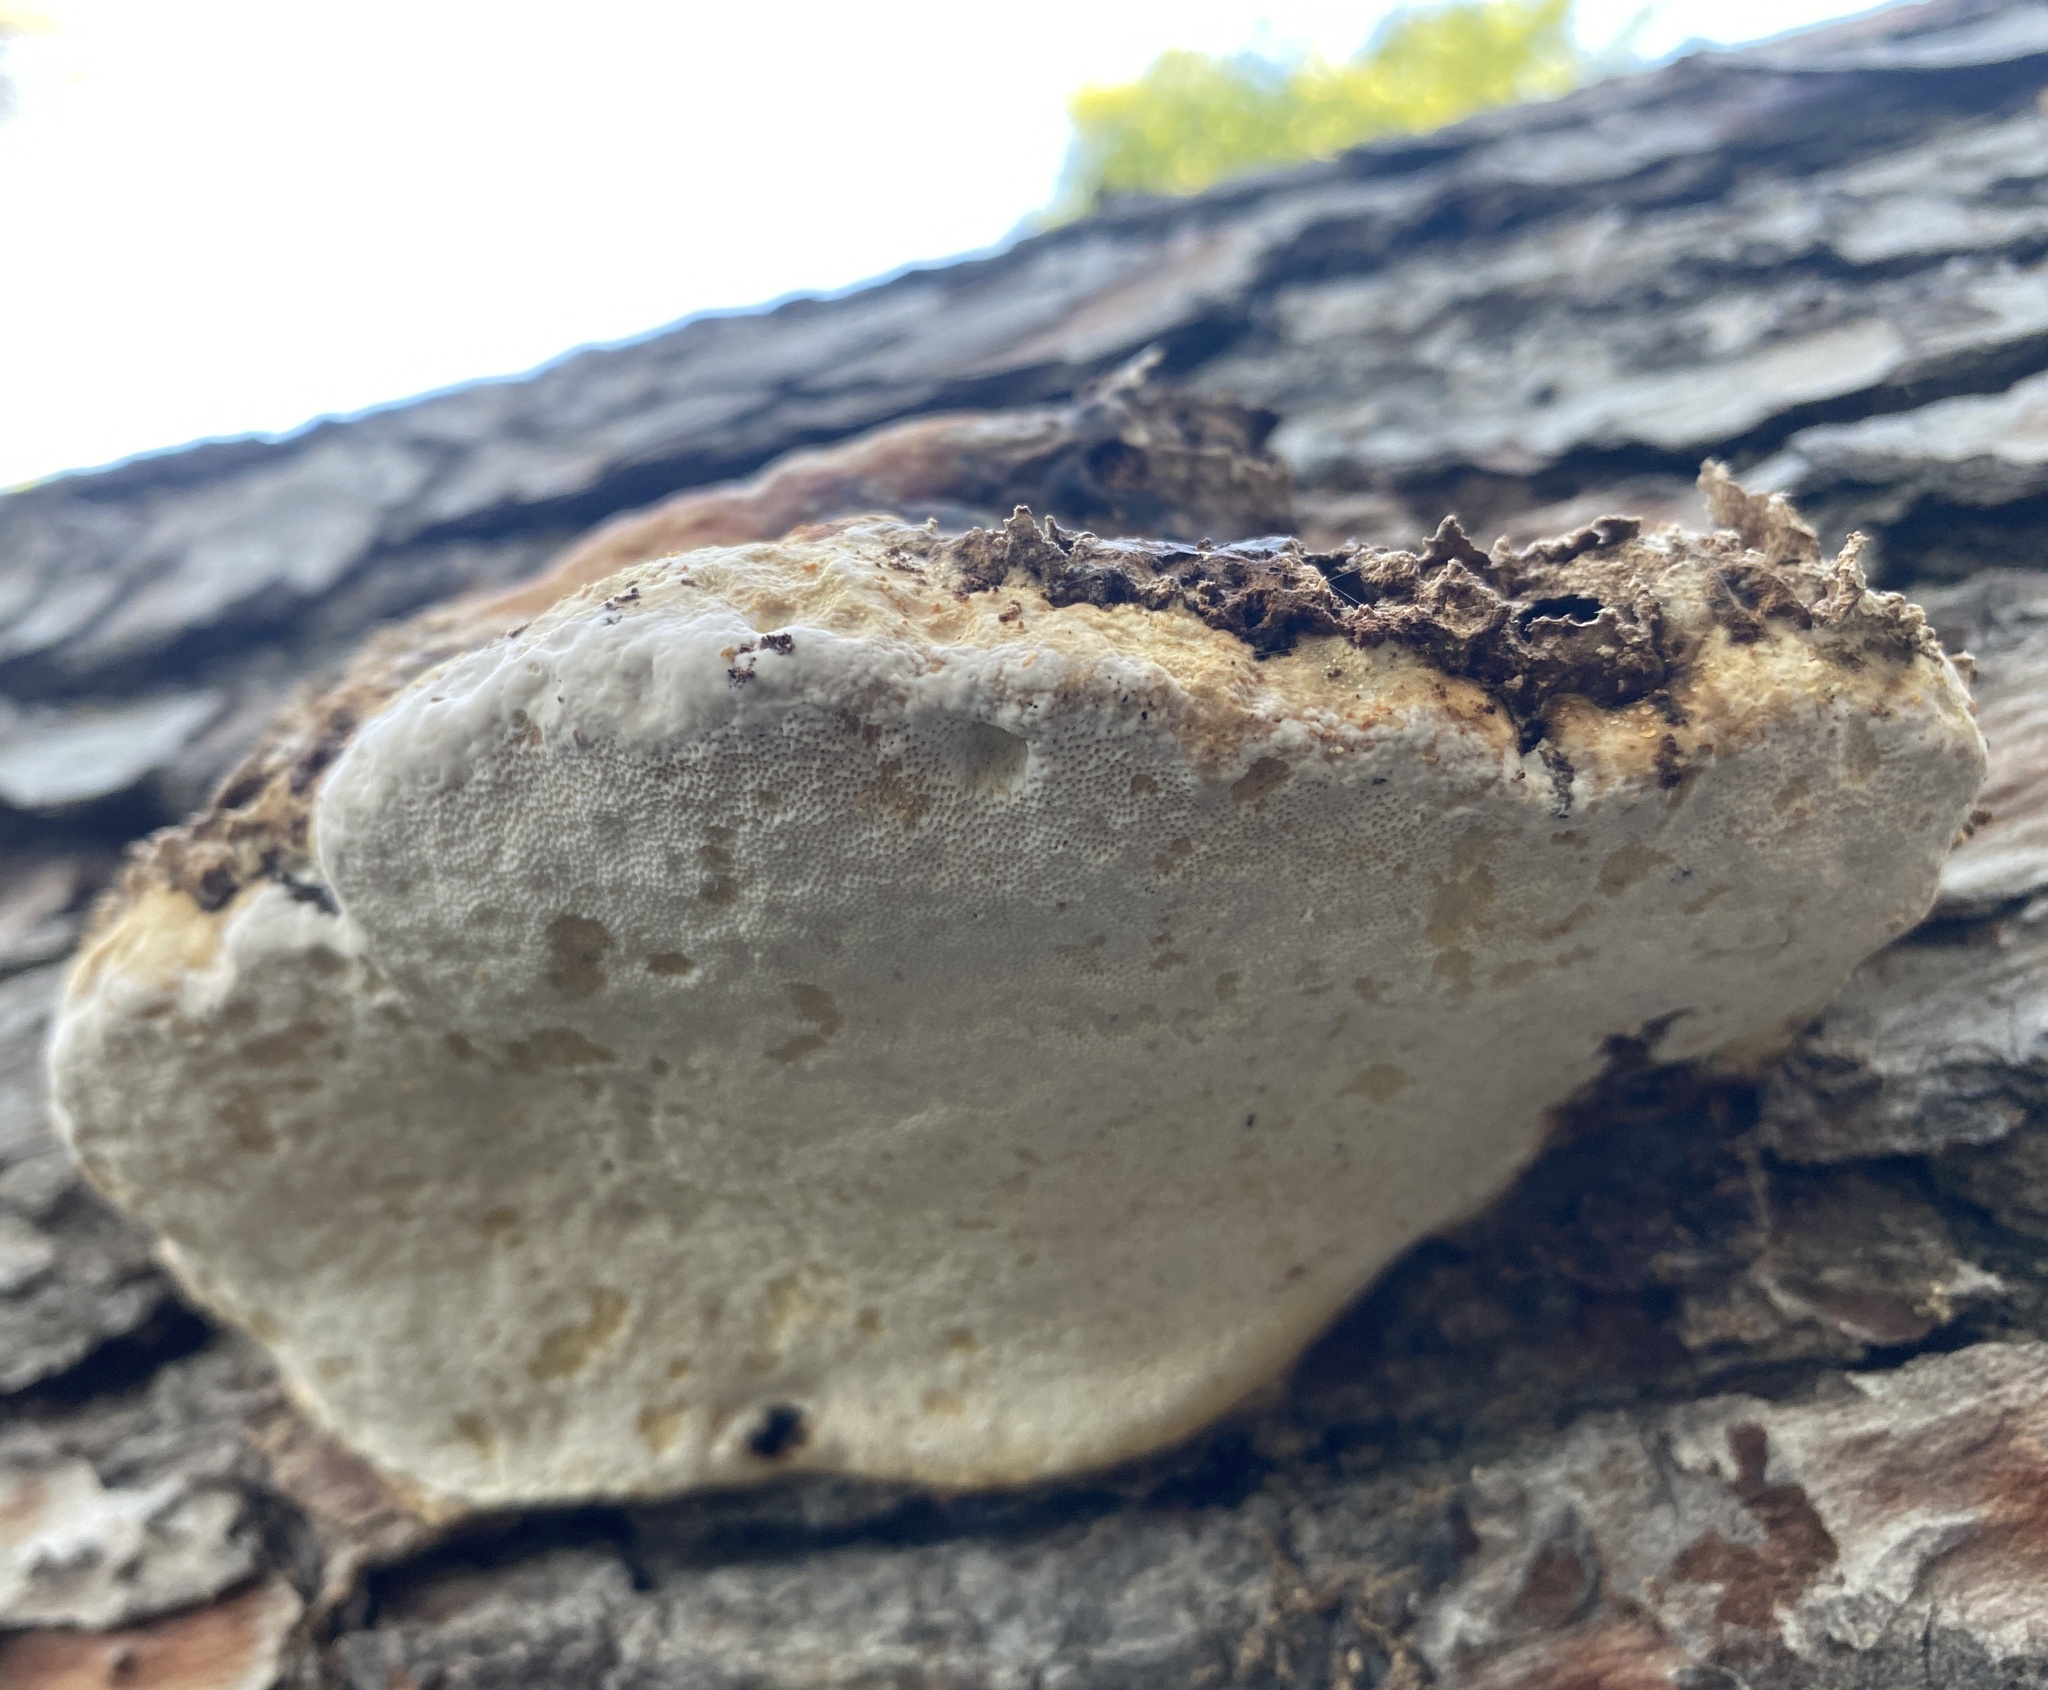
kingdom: Fungi
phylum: Basidiomycota
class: Agaricomycetes
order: Polyporales
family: Fomitopsidaceae
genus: Fomitopsis
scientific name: Fomitopsis pinicola
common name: Red-belted bracket
